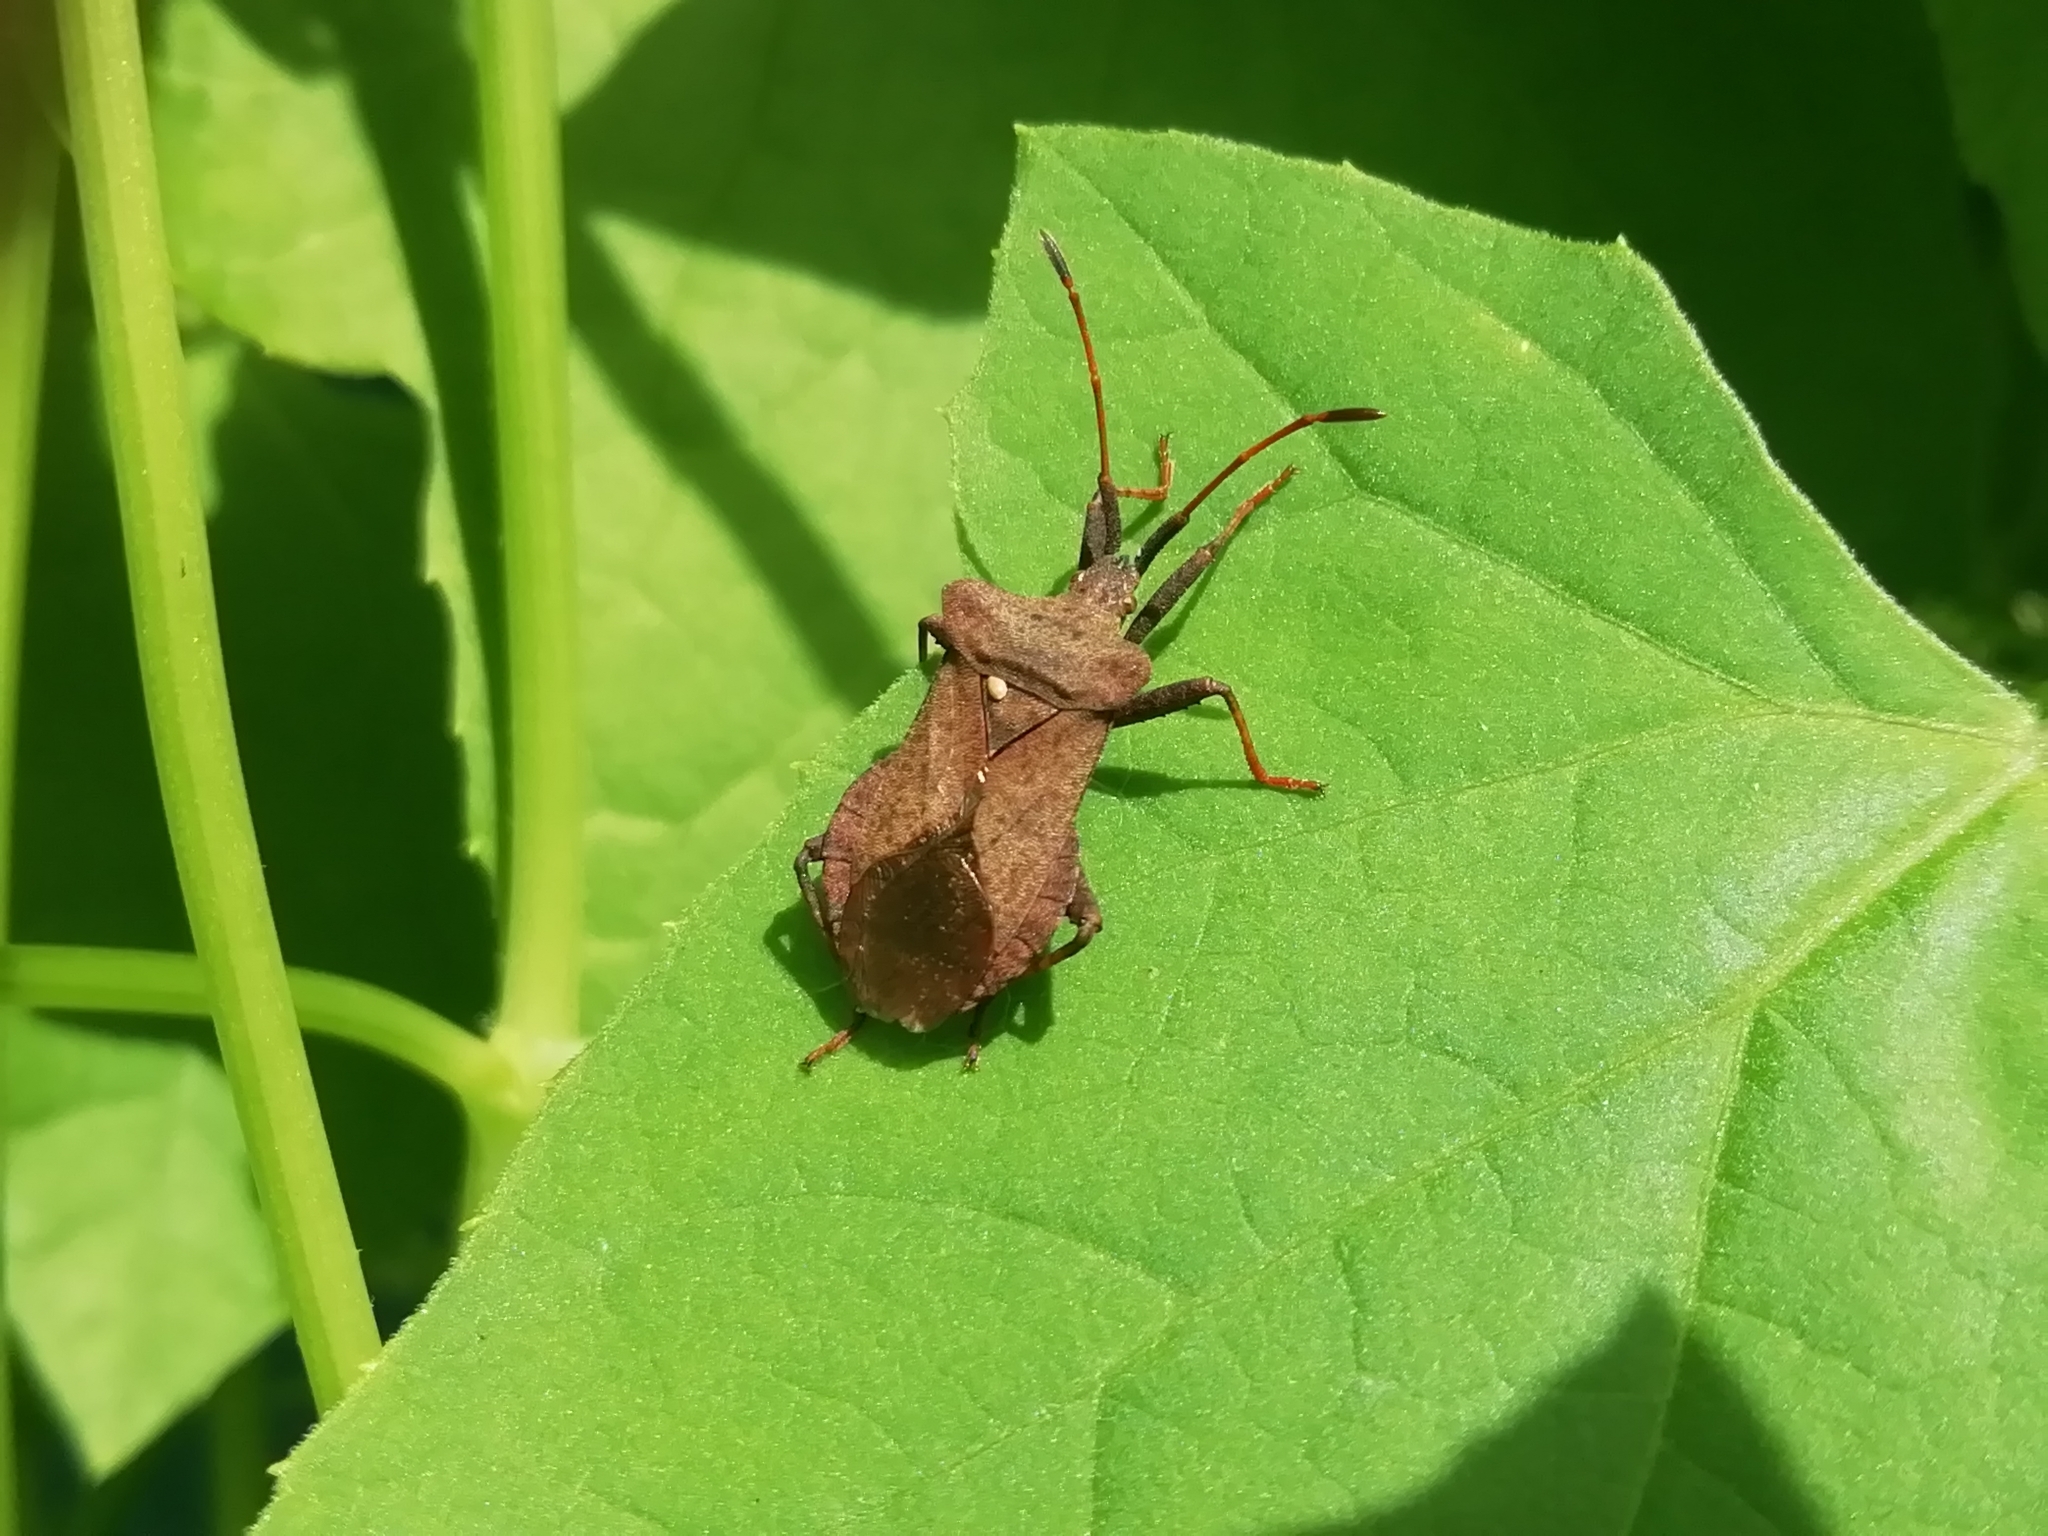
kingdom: Animalia
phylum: Arthropoda
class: Insecta
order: Hemiptera
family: Coreidae
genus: Coreus
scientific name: Coreus marginatus
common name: Dock bug
